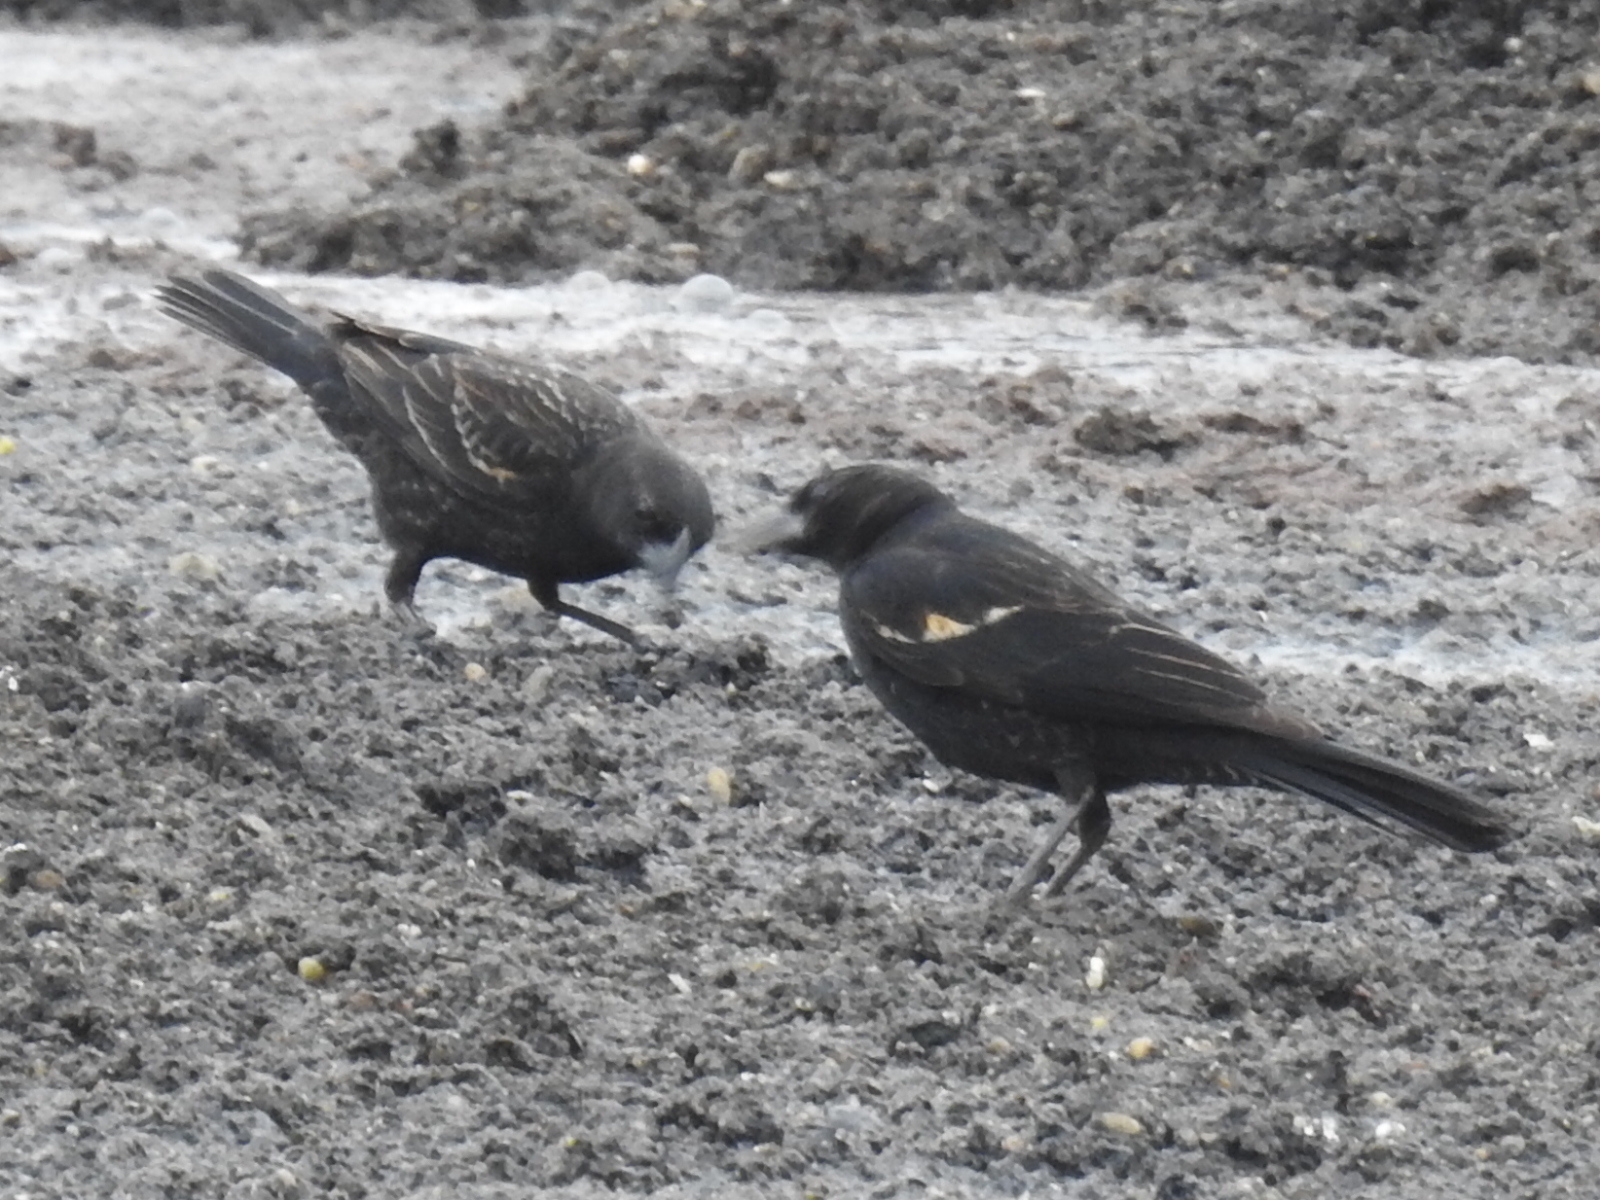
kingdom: Animalia
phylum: Chordata
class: Aves
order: Passeriformes
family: Icteridae
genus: Agelaius
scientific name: Agelaius phoeniceus
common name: Red-winged blackbird
